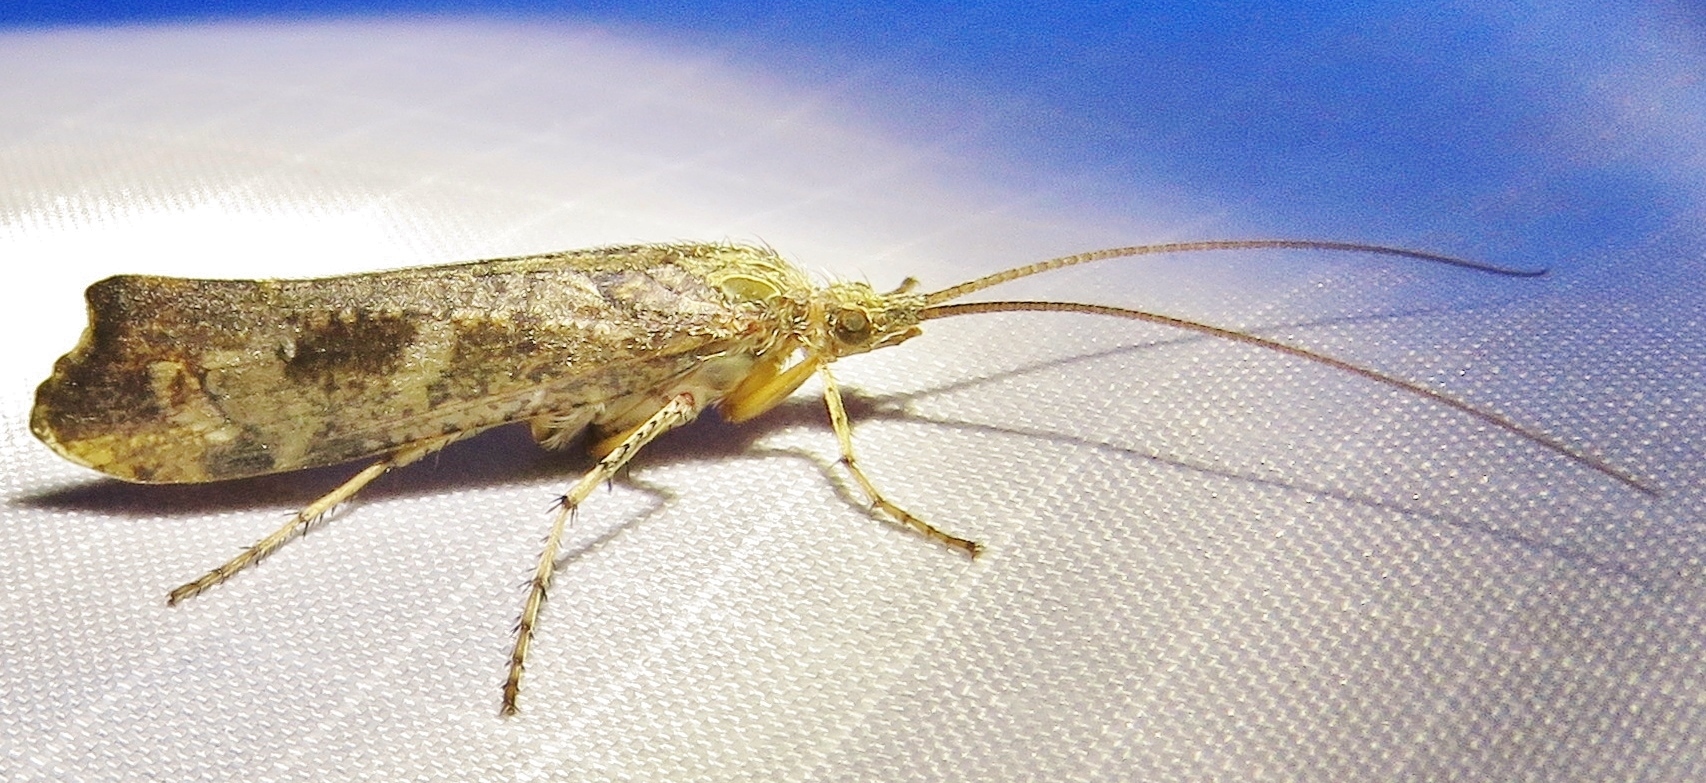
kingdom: Animalia
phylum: Arthropoda
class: Insecta
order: Trichoptera
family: Limnephilidae
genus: Glyphotaelius
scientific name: Glyphotaelius pellucidus
